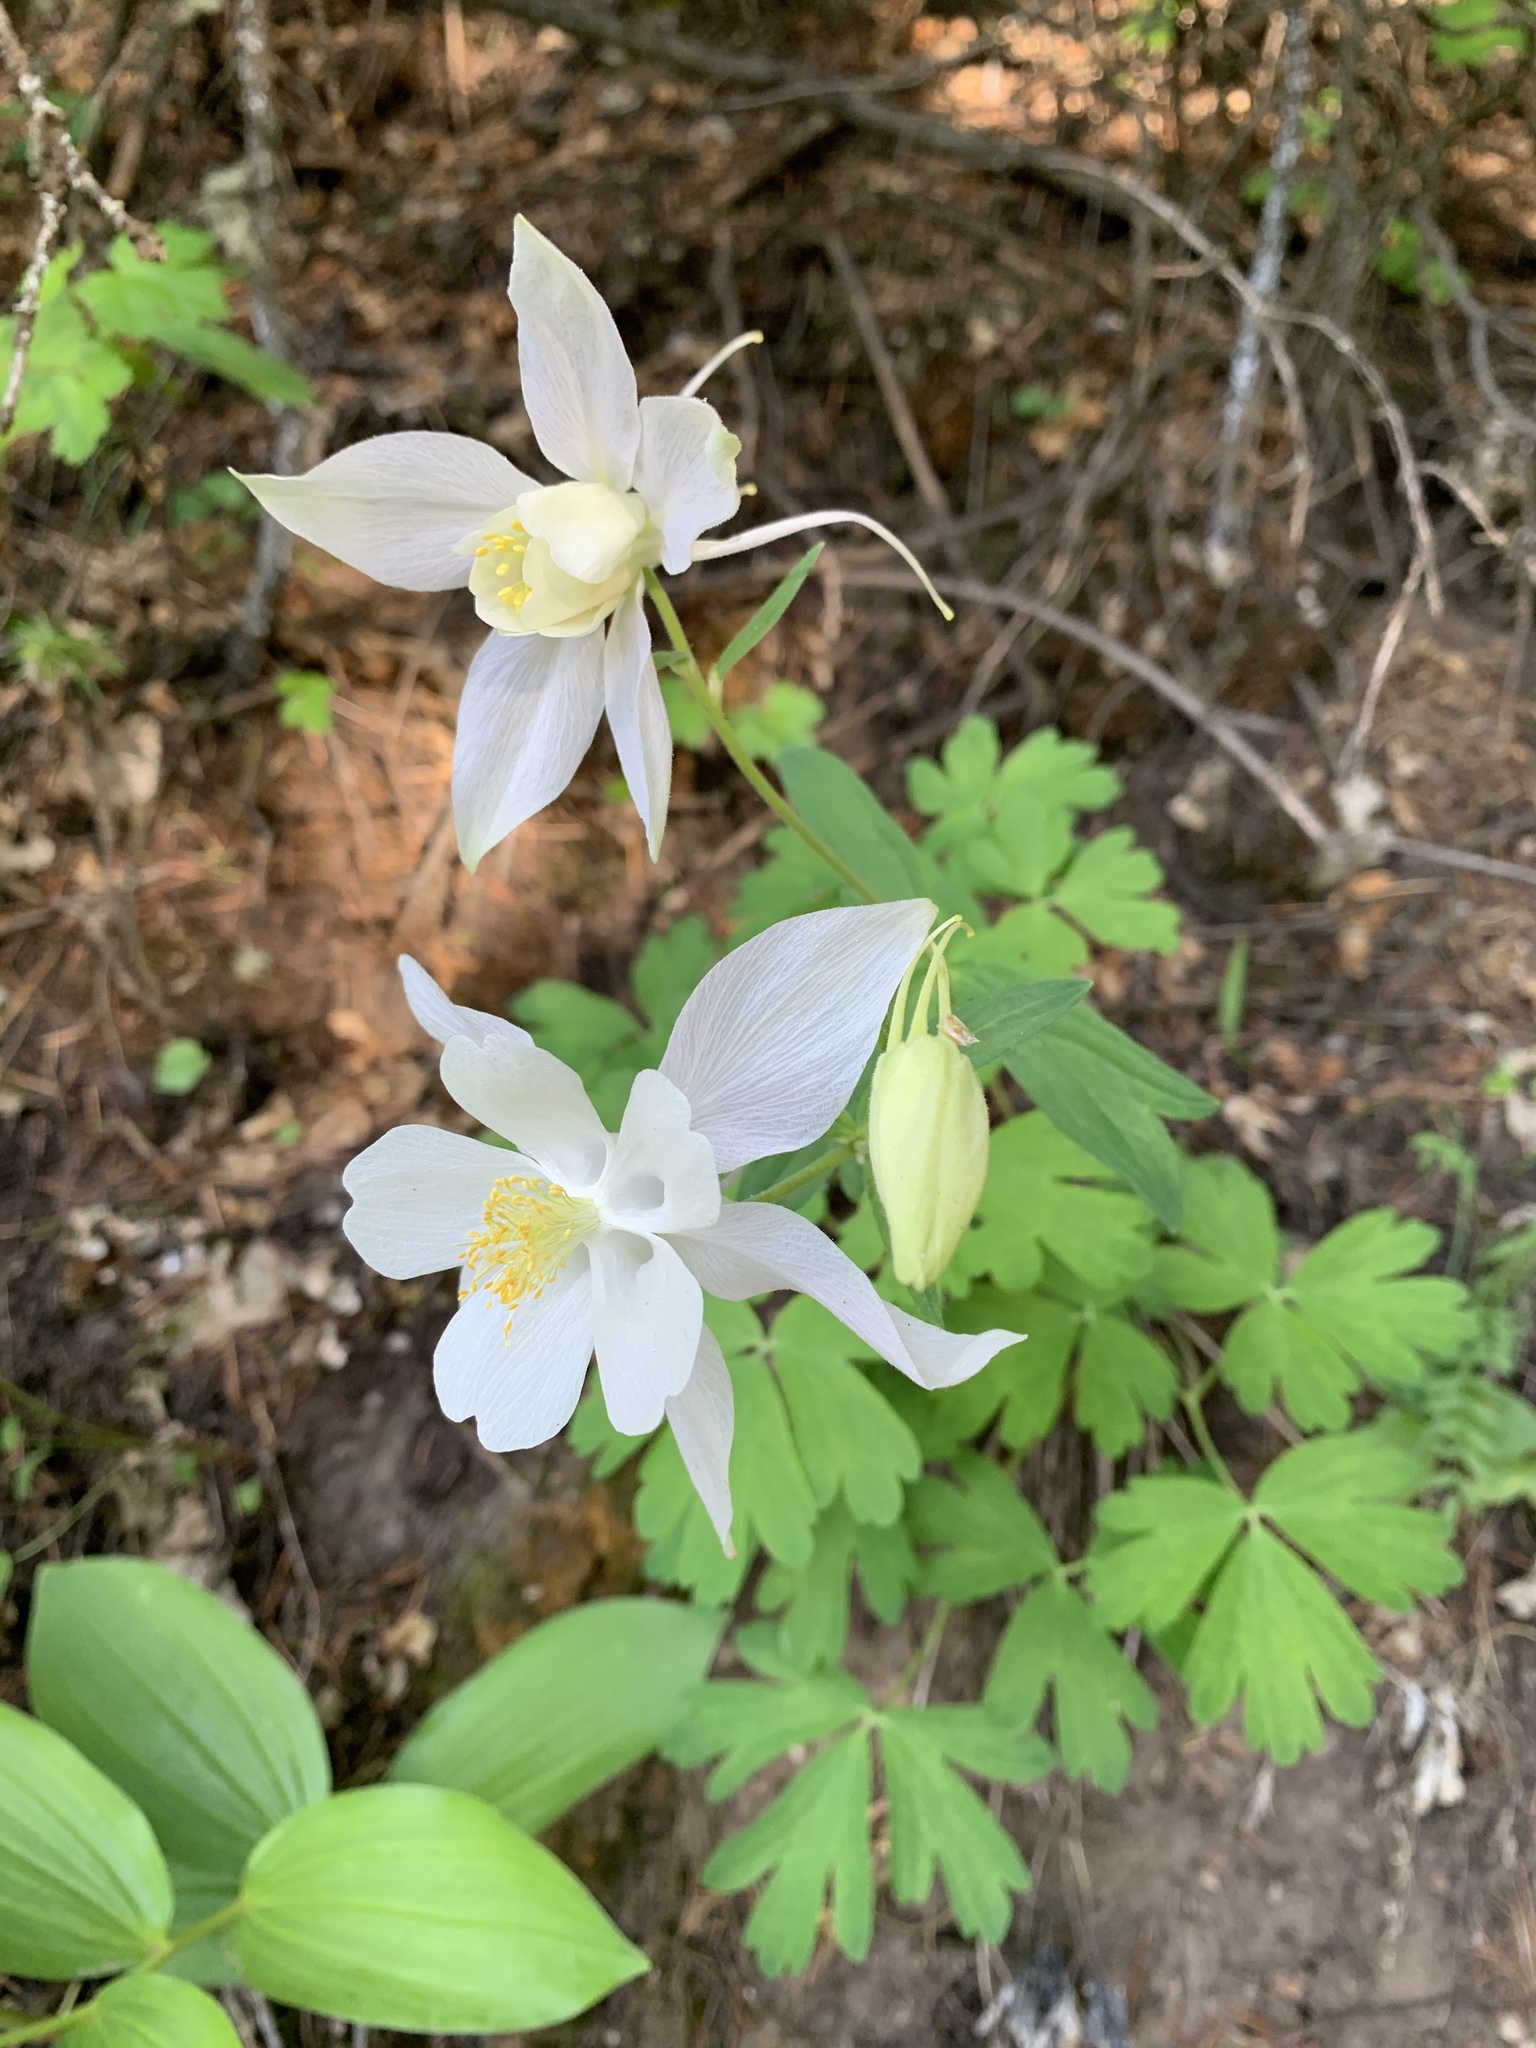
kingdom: Plantae
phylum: Tracheophyta
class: Magnoliopsida
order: Ranunculales
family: Ranunculaceae
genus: Aquilegia
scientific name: Aquilegia coerulea
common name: Rocky mountain columbine
